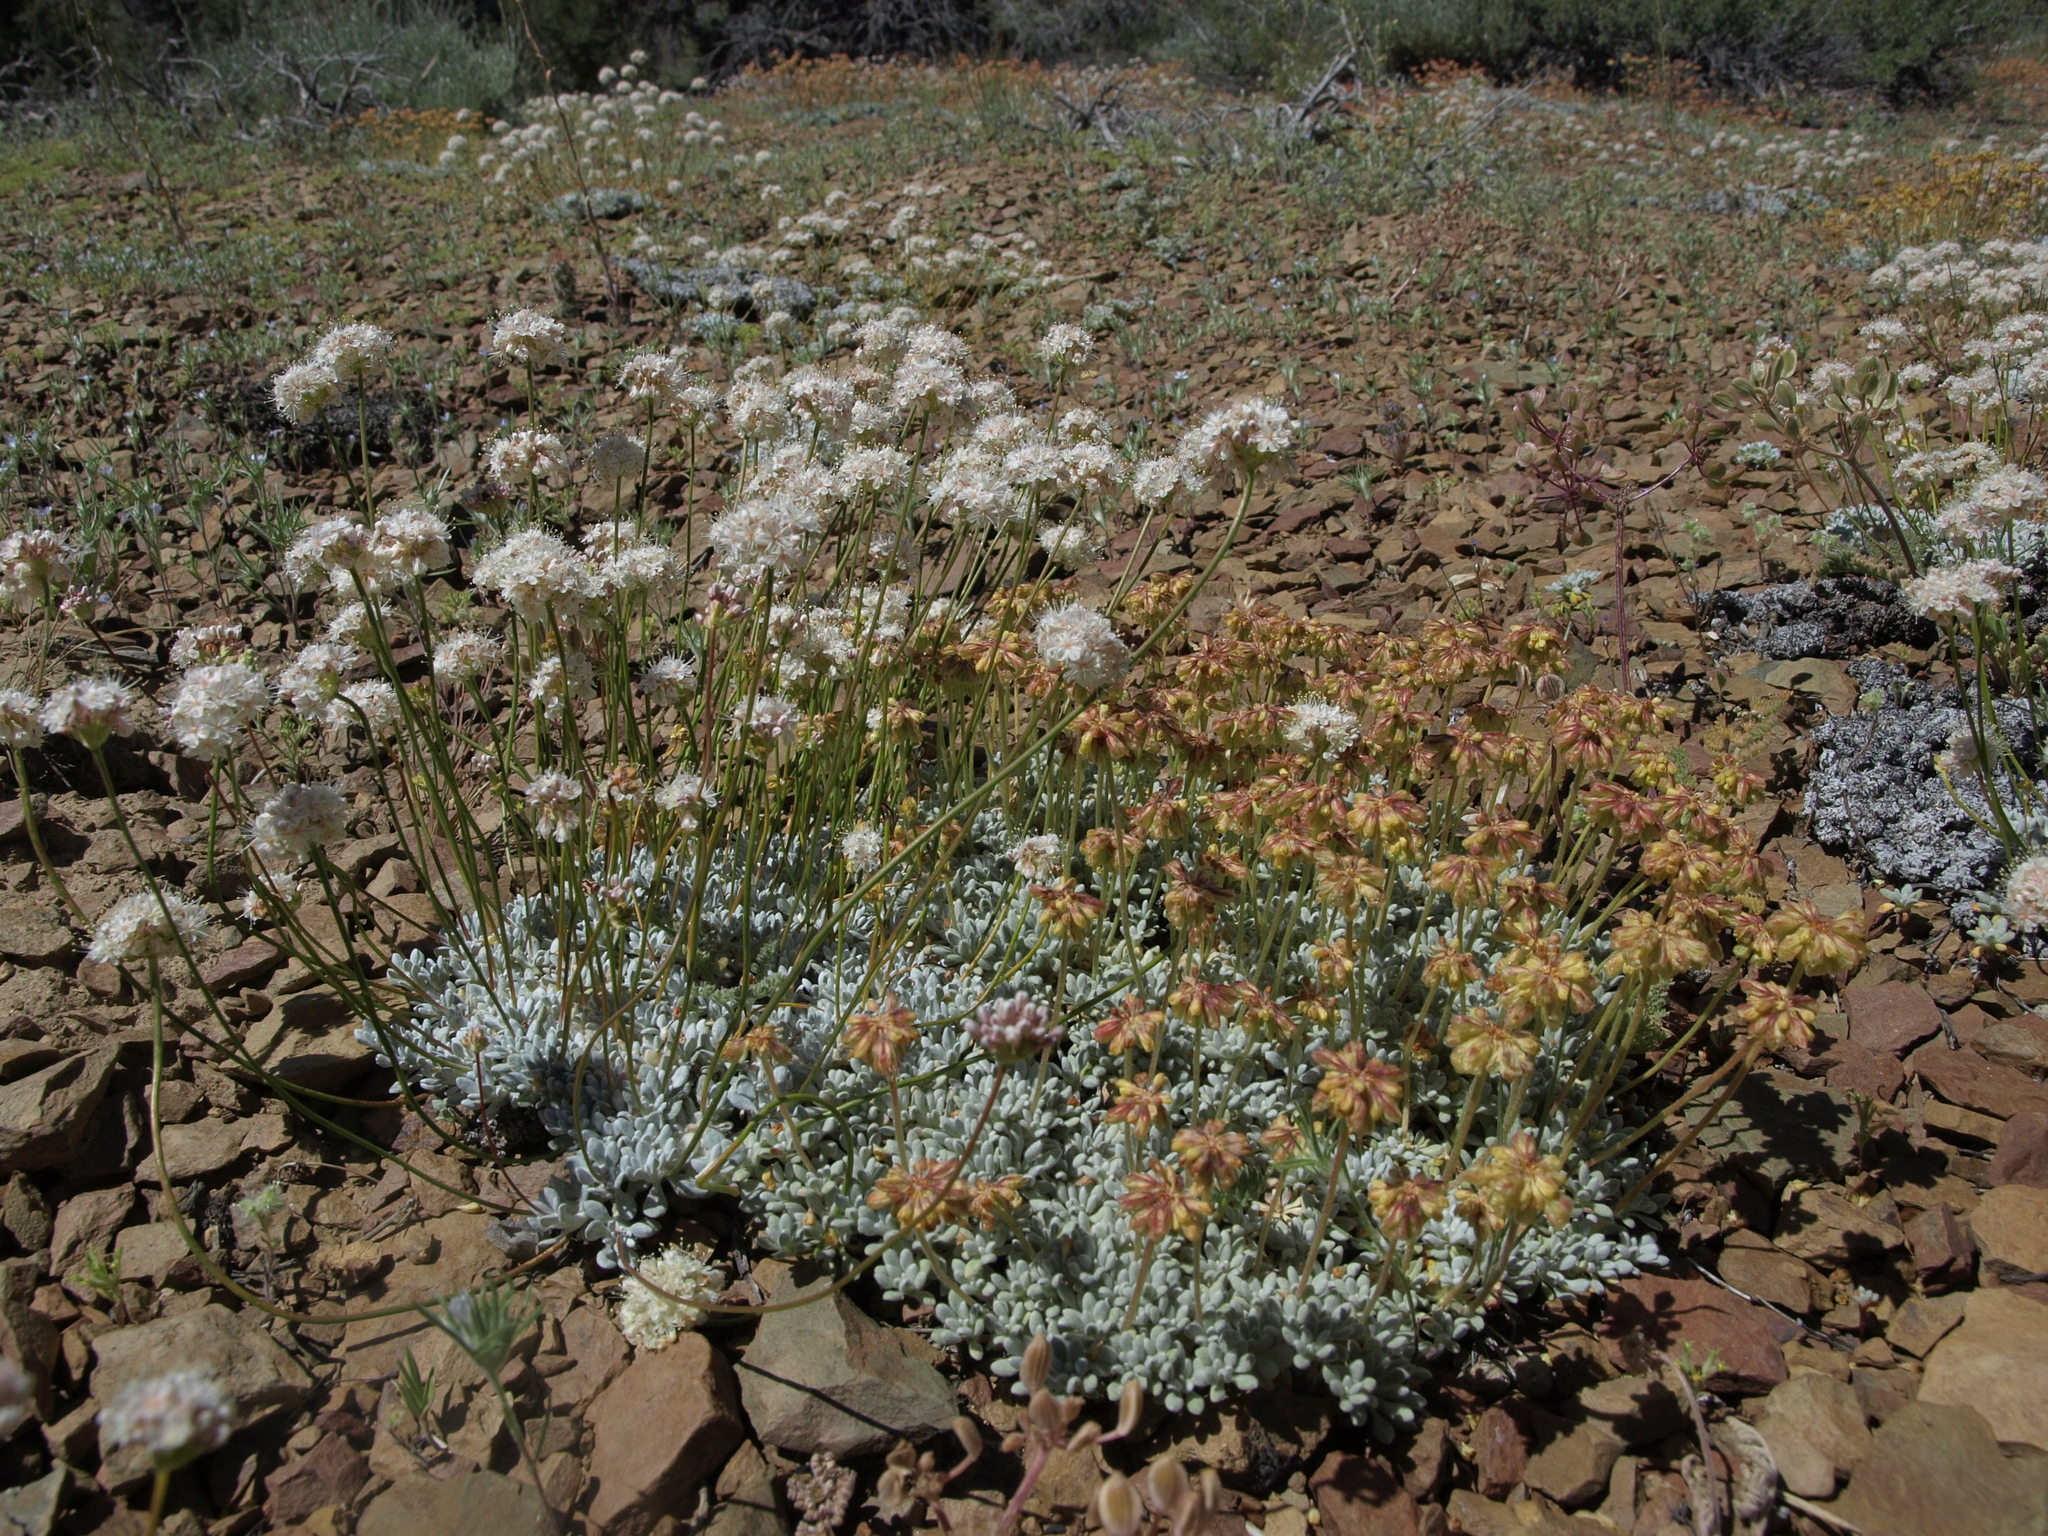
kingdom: Plantae
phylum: Tracheophyta
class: Magnoliopsida
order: Caryophyllales
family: Polygonaceae
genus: Eriogonum
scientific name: Eriogonum kennedyi
